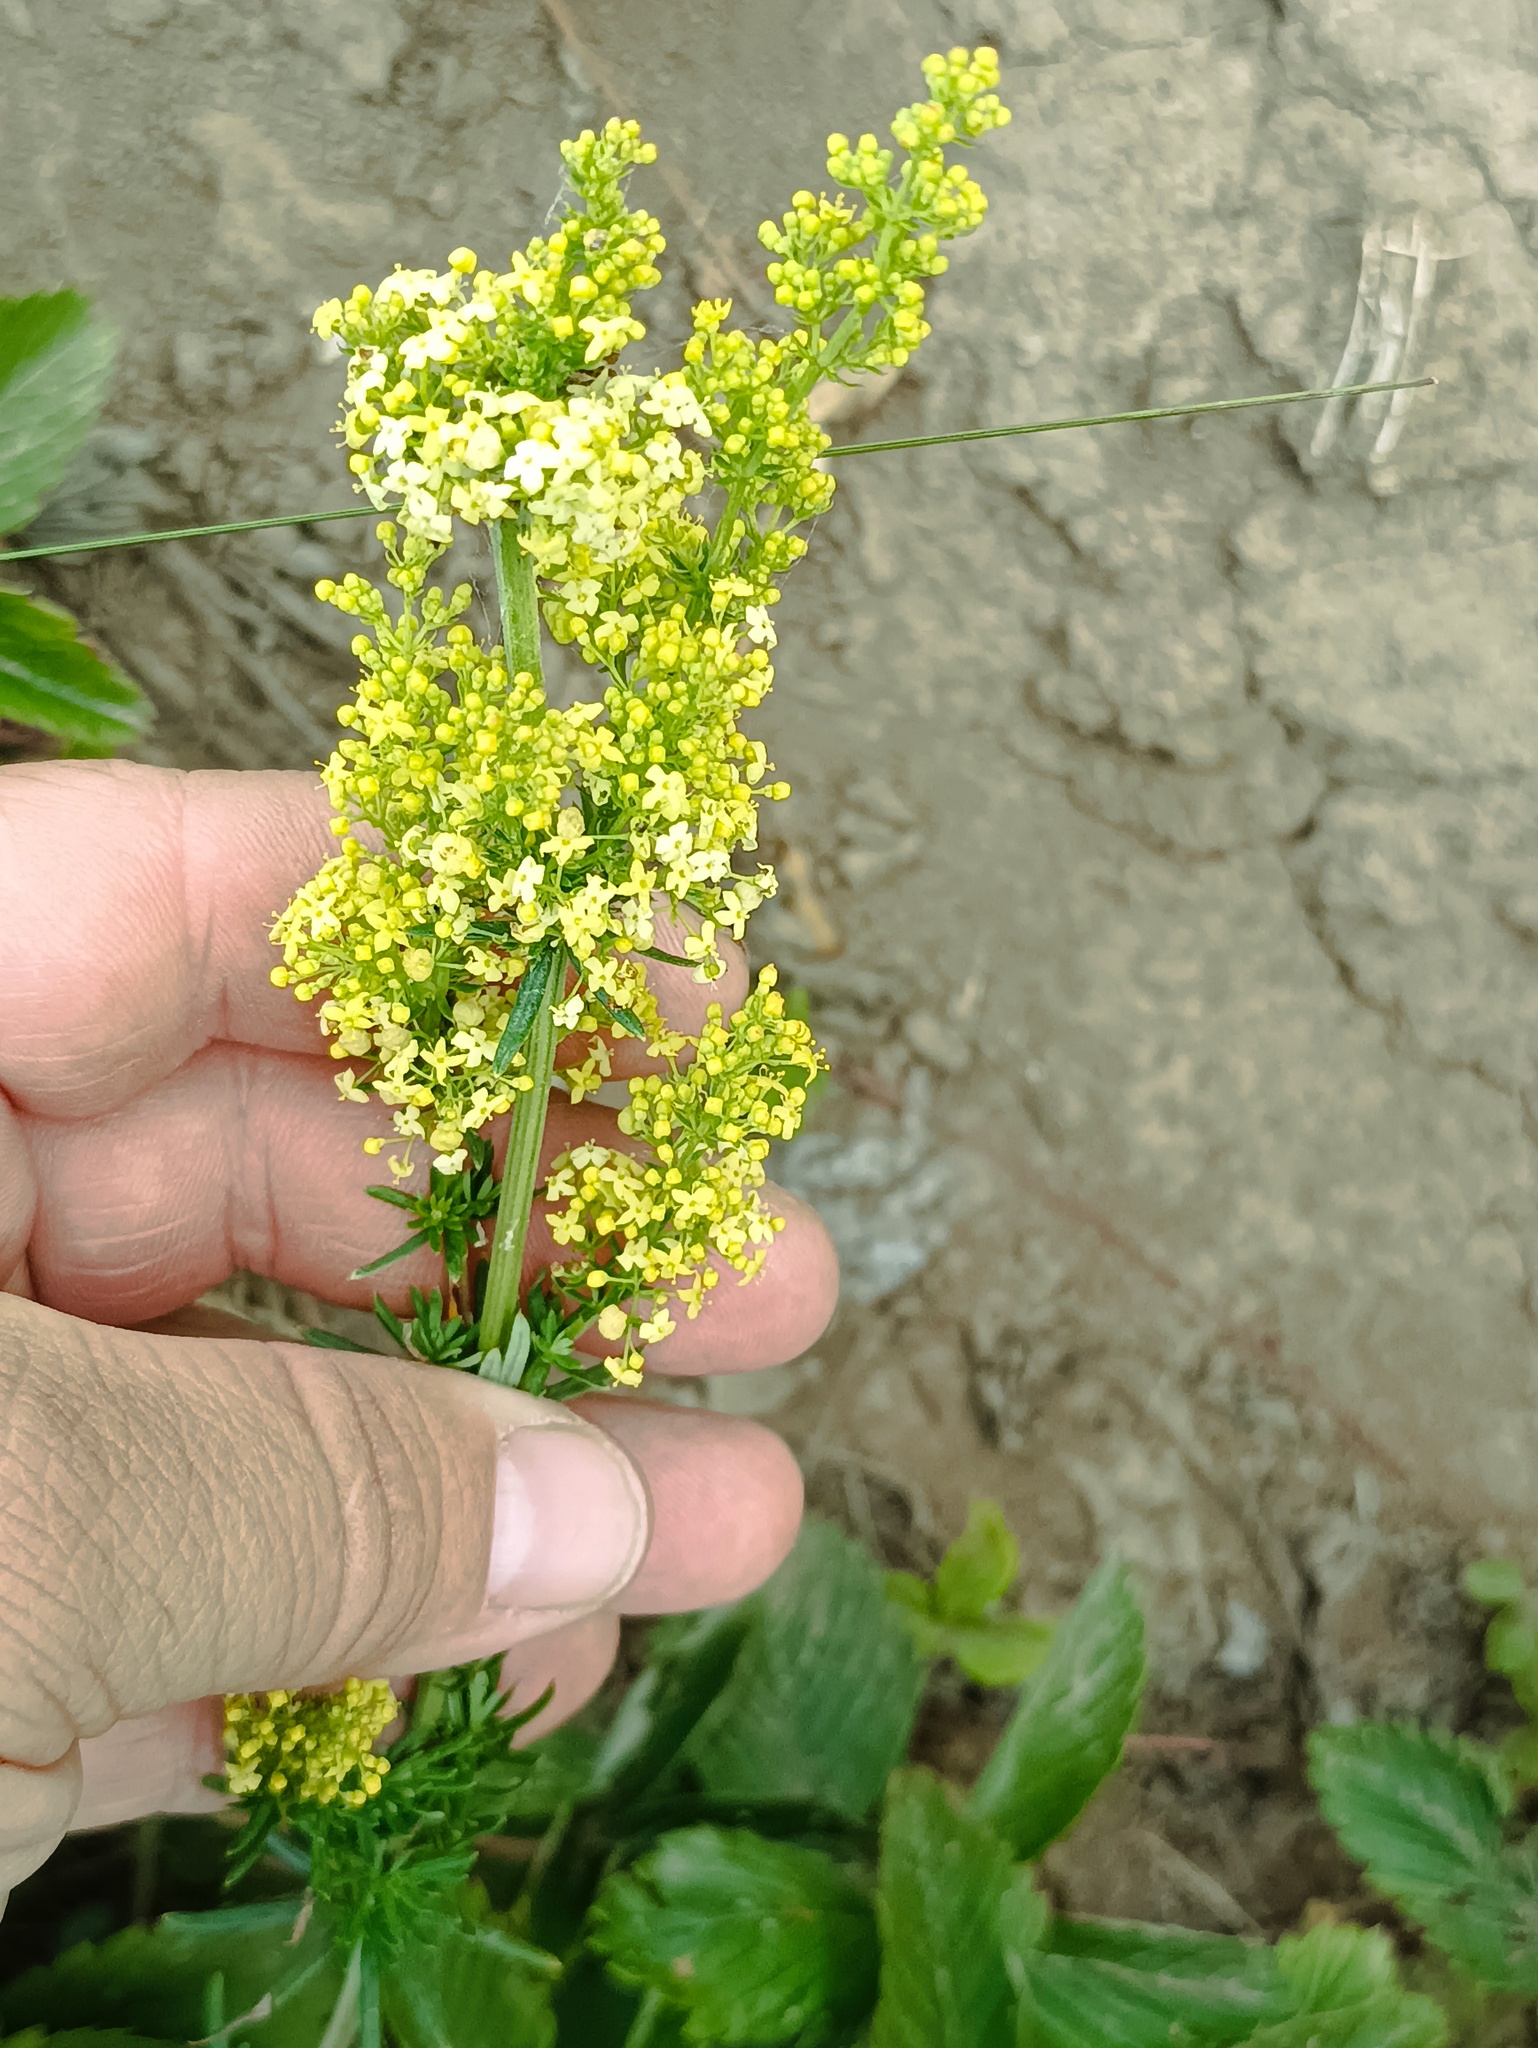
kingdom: Plantae
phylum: Tracheophyta
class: Magnoliopsida
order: Gentianales
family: Rubiaceae
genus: Galium
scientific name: Galium verum
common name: Lady's bedstraw
